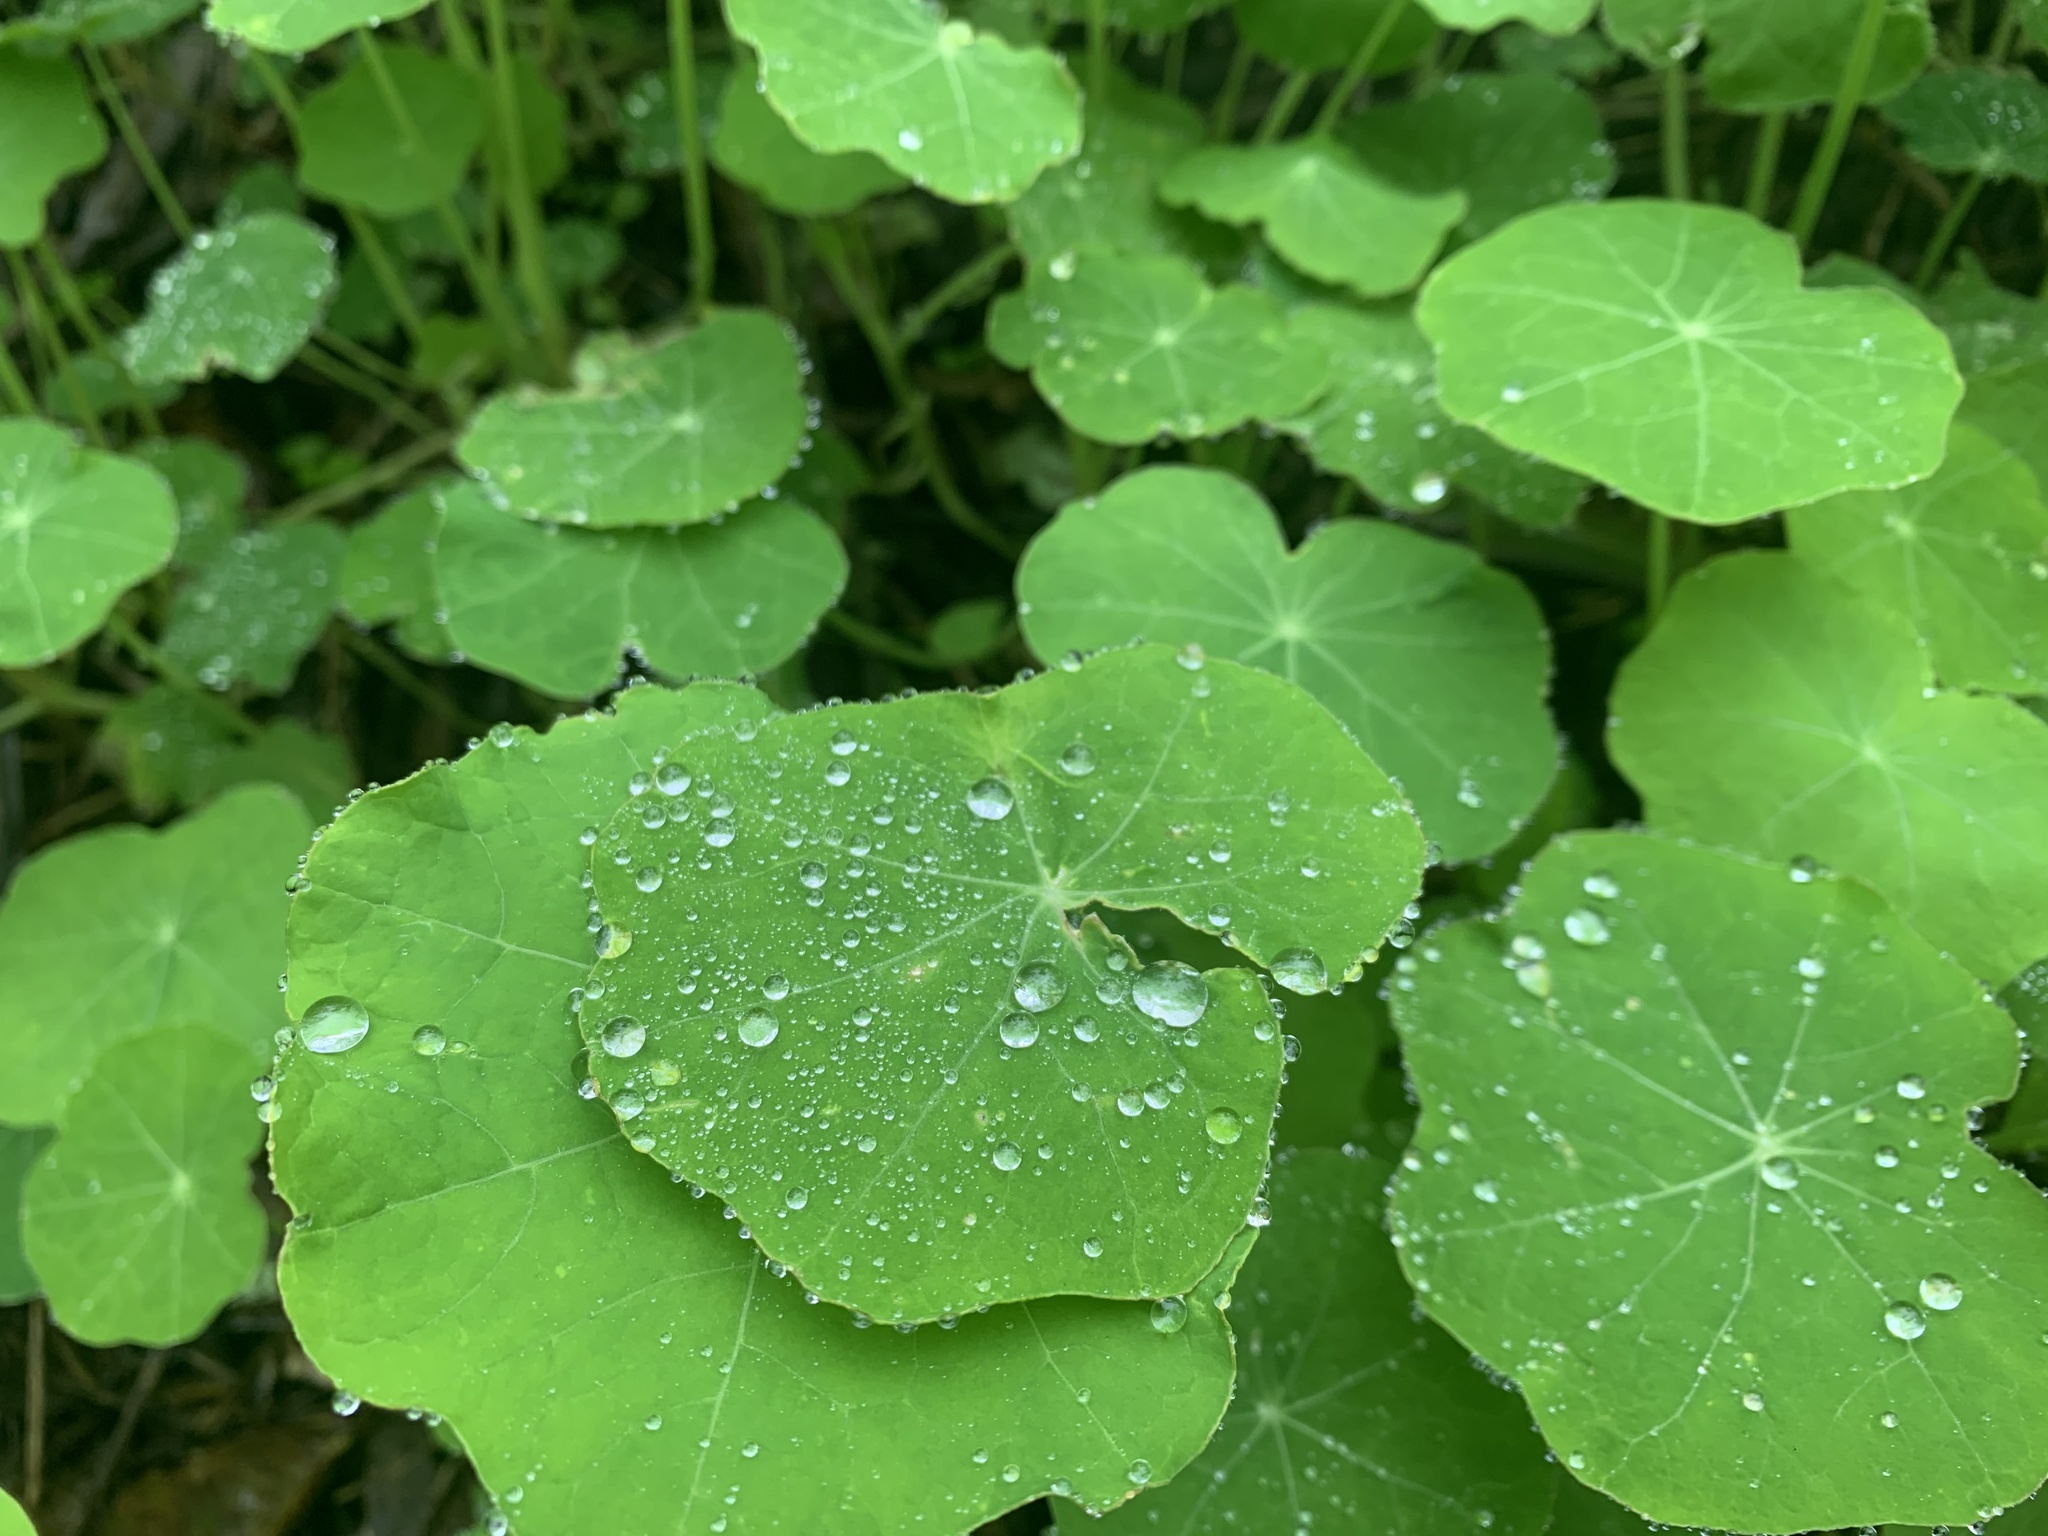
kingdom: Plantae
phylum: Tracheophyta
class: Magnoliopsida
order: Brassicales
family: Tropaeolaceae
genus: Tropaeolum
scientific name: Tropaeolum majus
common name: Nasturtium
